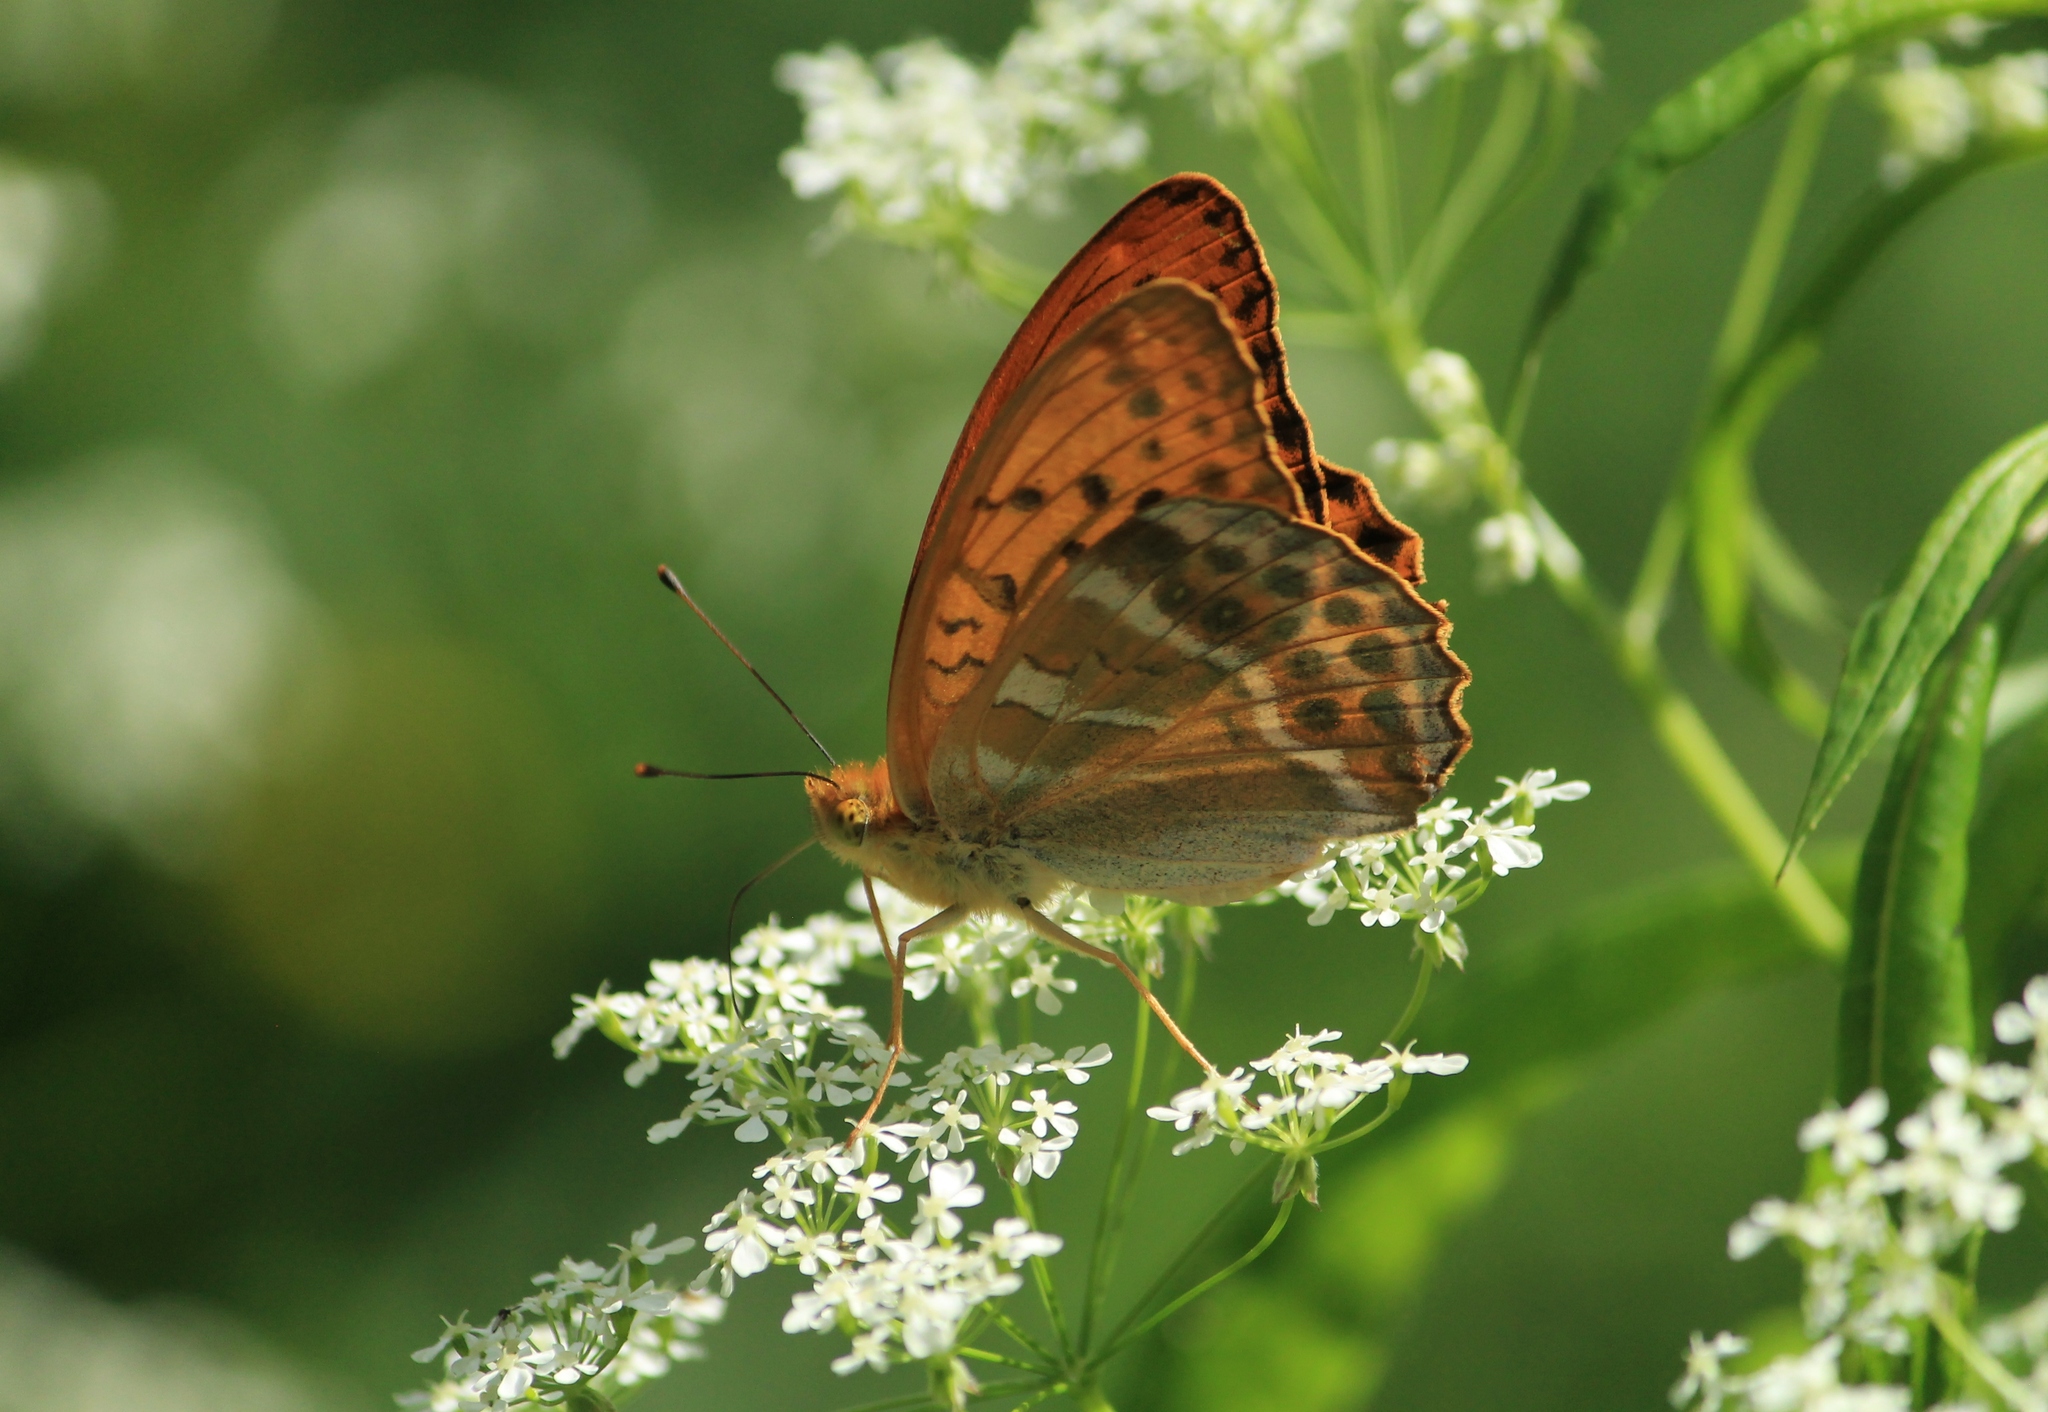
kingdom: Animalia
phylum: Arthropoda
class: Insecta
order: Lepidoptera
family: Nymphalidae
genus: Argynnis
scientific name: Argynnis paphia
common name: Silver-washed fritillary
